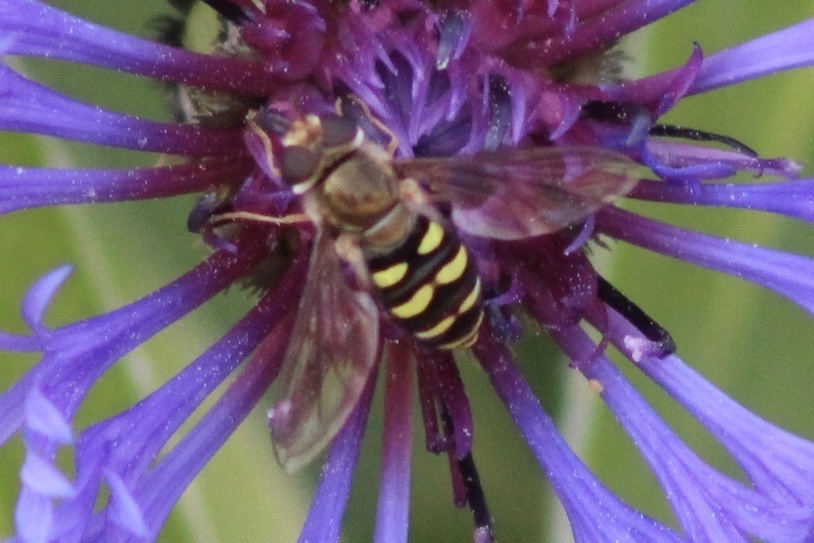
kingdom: Animalia
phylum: Arthropoda
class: Insecta
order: Diptera
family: Syrphidae
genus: Eupeodes
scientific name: Eupeodes fumipennis
